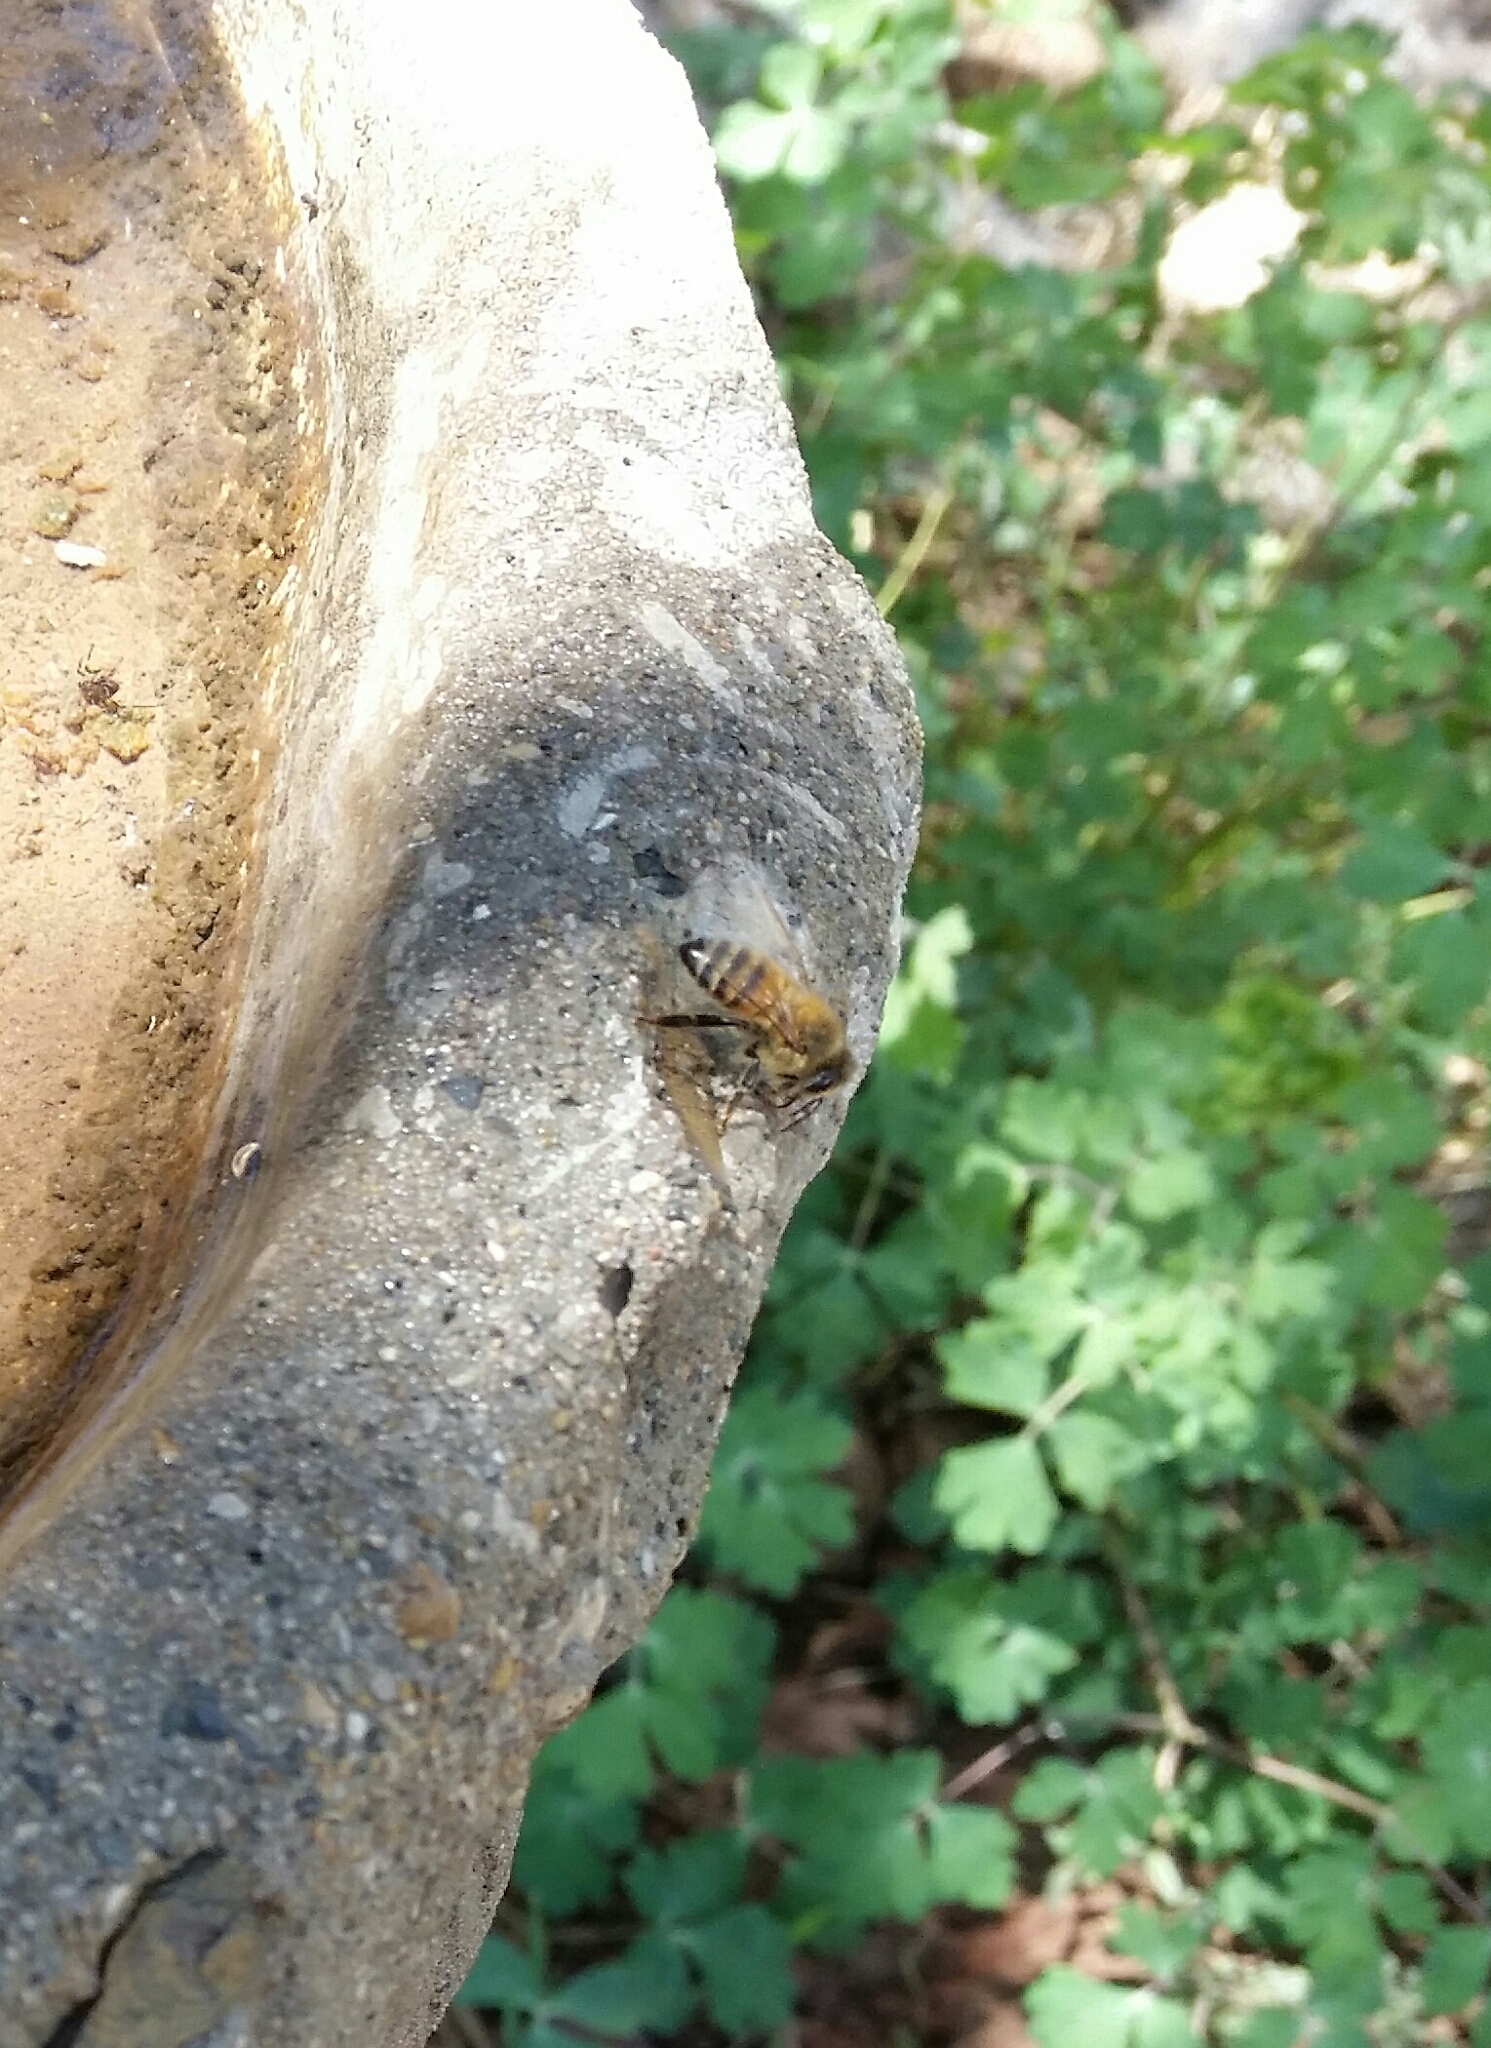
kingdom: Animalia
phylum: Arthropoda
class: Insecta
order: Hymenoptera
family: Apidae
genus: Apis
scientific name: Apis mellifera
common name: Honey bee
